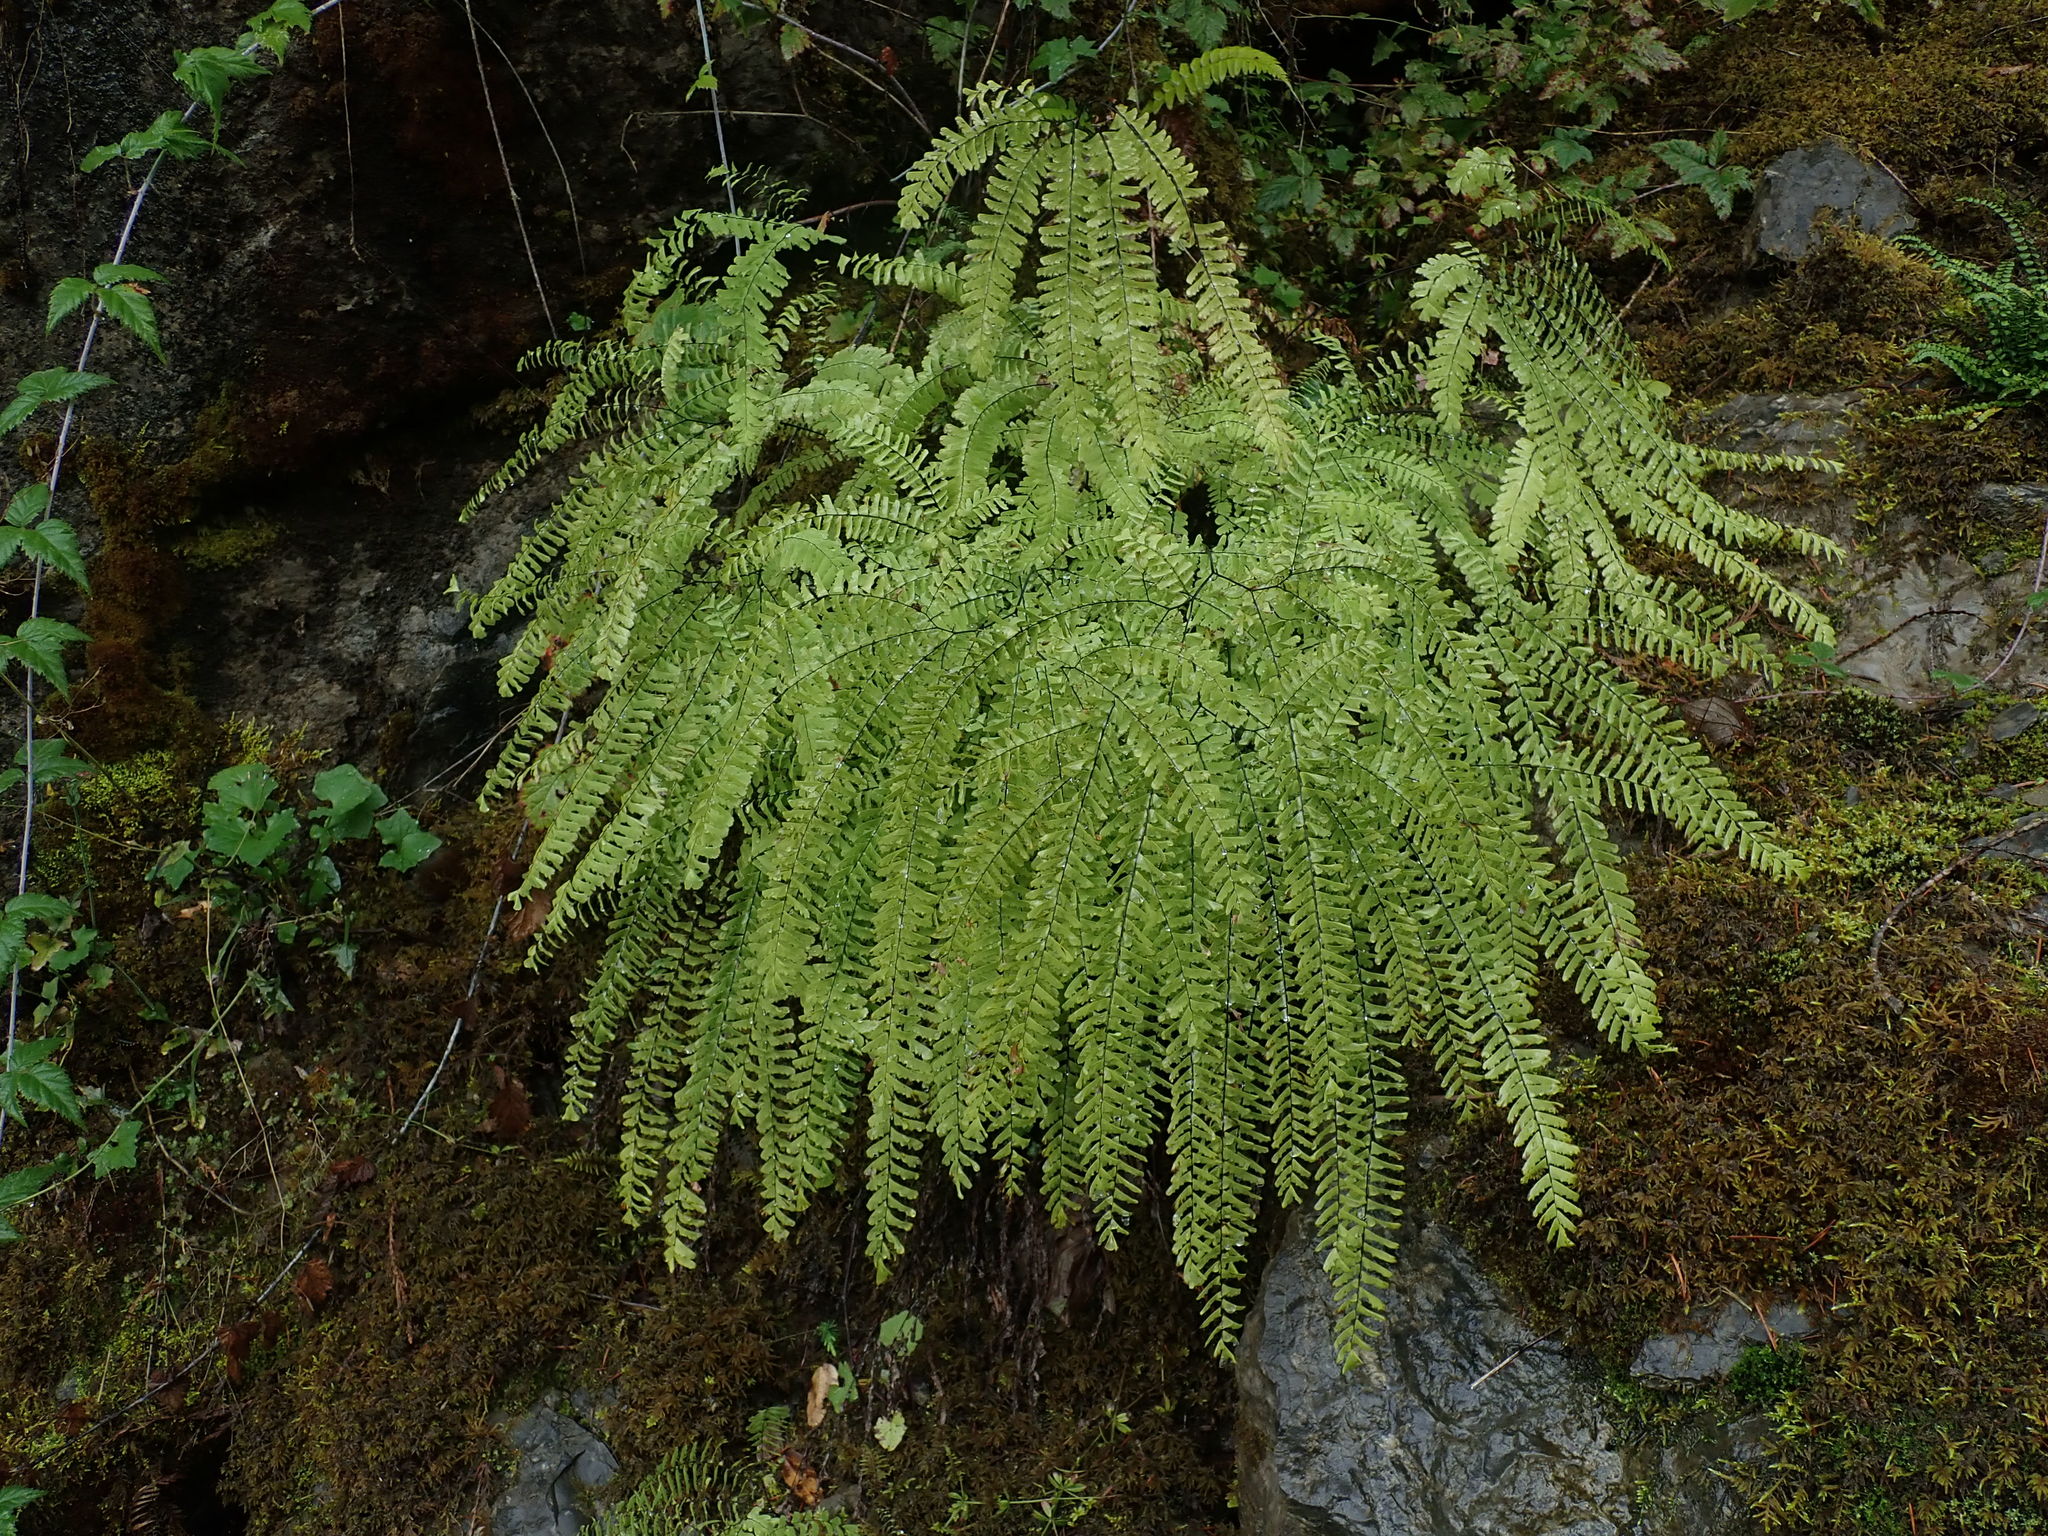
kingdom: Plantae
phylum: Tracheophyta
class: Polypodiopsida
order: Polypodiales
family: Pteridaceae
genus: Adiantum
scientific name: Adiantum aleuticum
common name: Aleutian maidenhair fern
